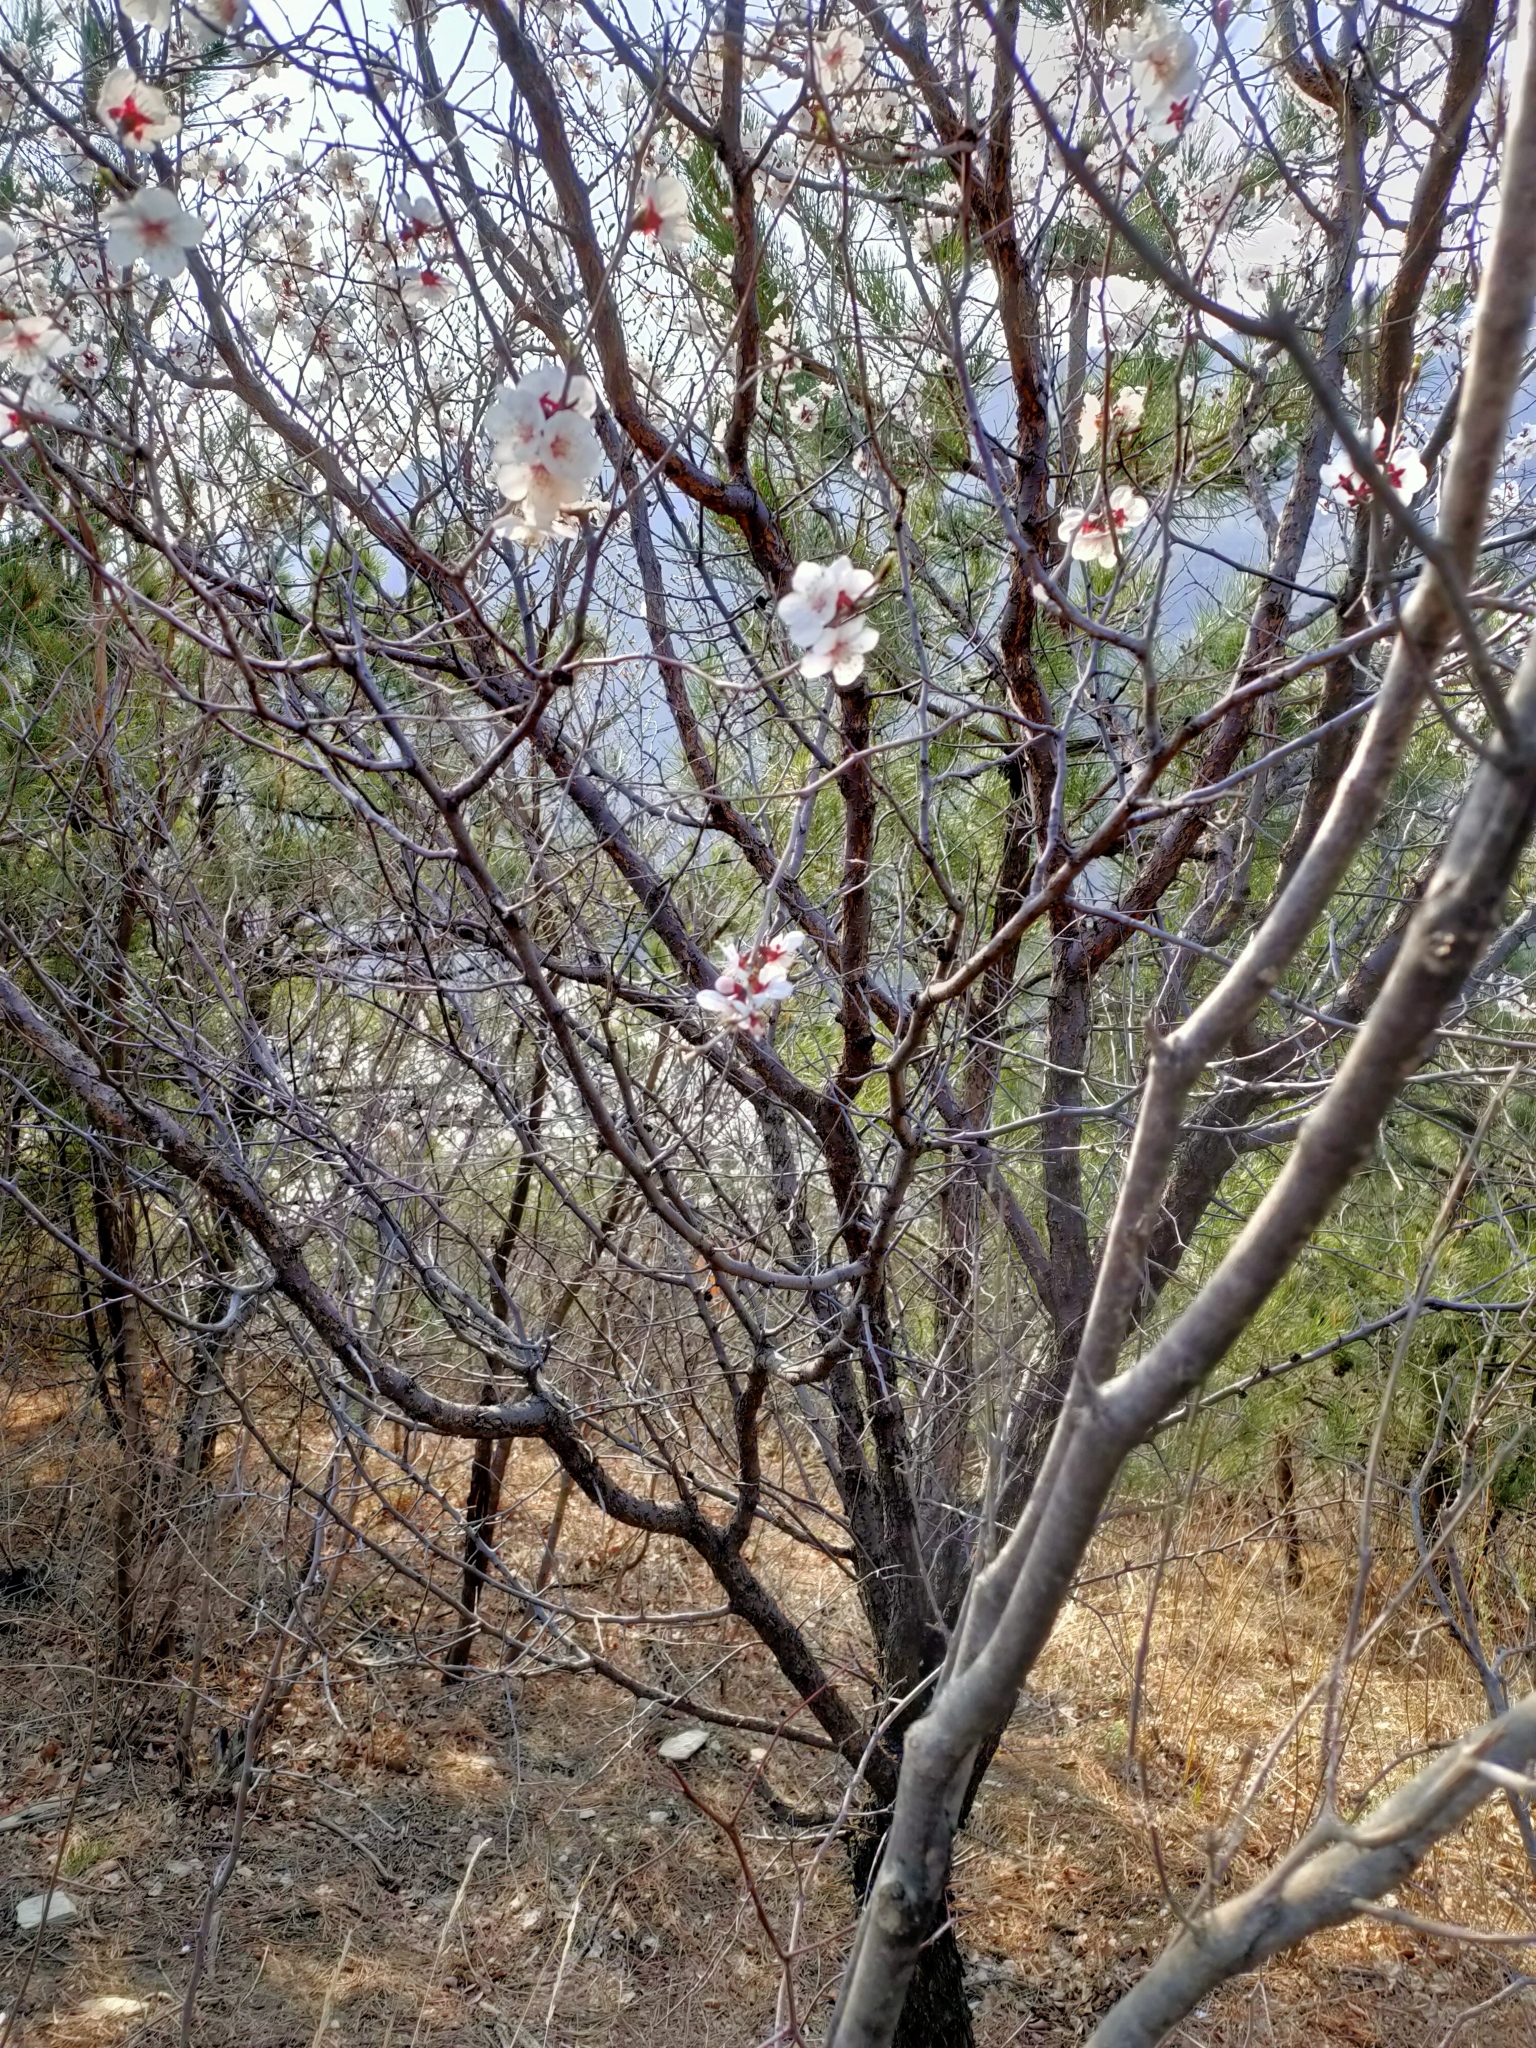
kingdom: Plantae
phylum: Tracheophyta
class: Magnoliopsida
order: Rosales
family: Rosaceae
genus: Prunus
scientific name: Prunus sibirica
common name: Siberian apricot
